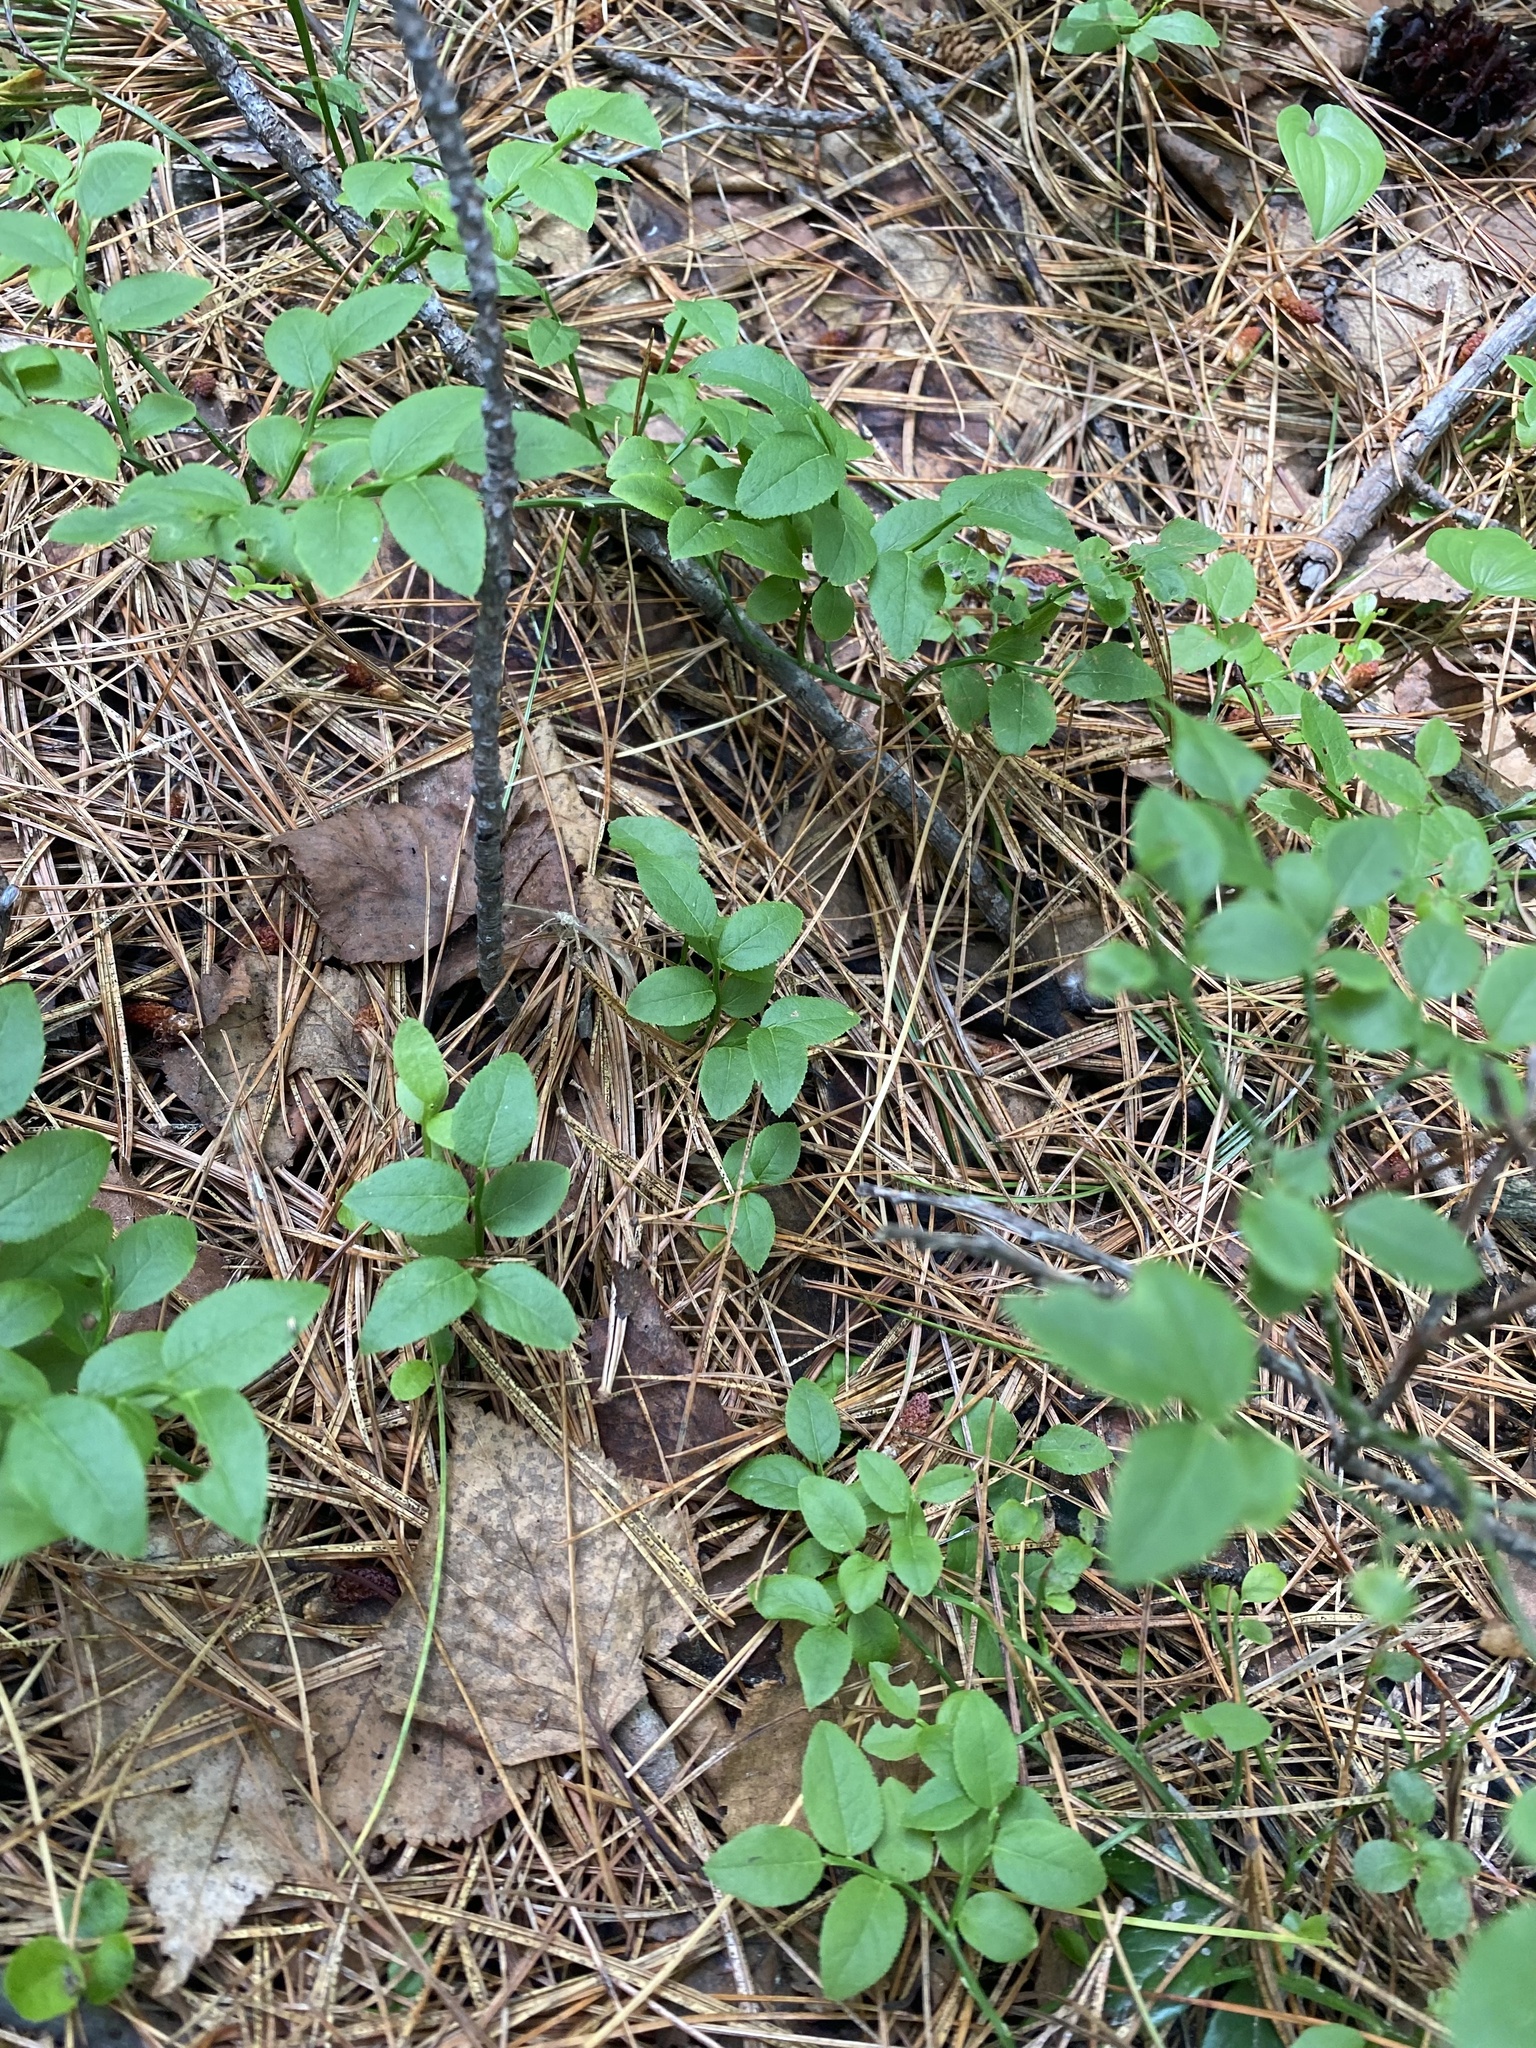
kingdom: Plantae
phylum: Tracheophyta
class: Magnoliopsida
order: Ericales
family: Ericaceae
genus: Vaccinium
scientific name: Vaccinium myrtillus
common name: Bilberry
